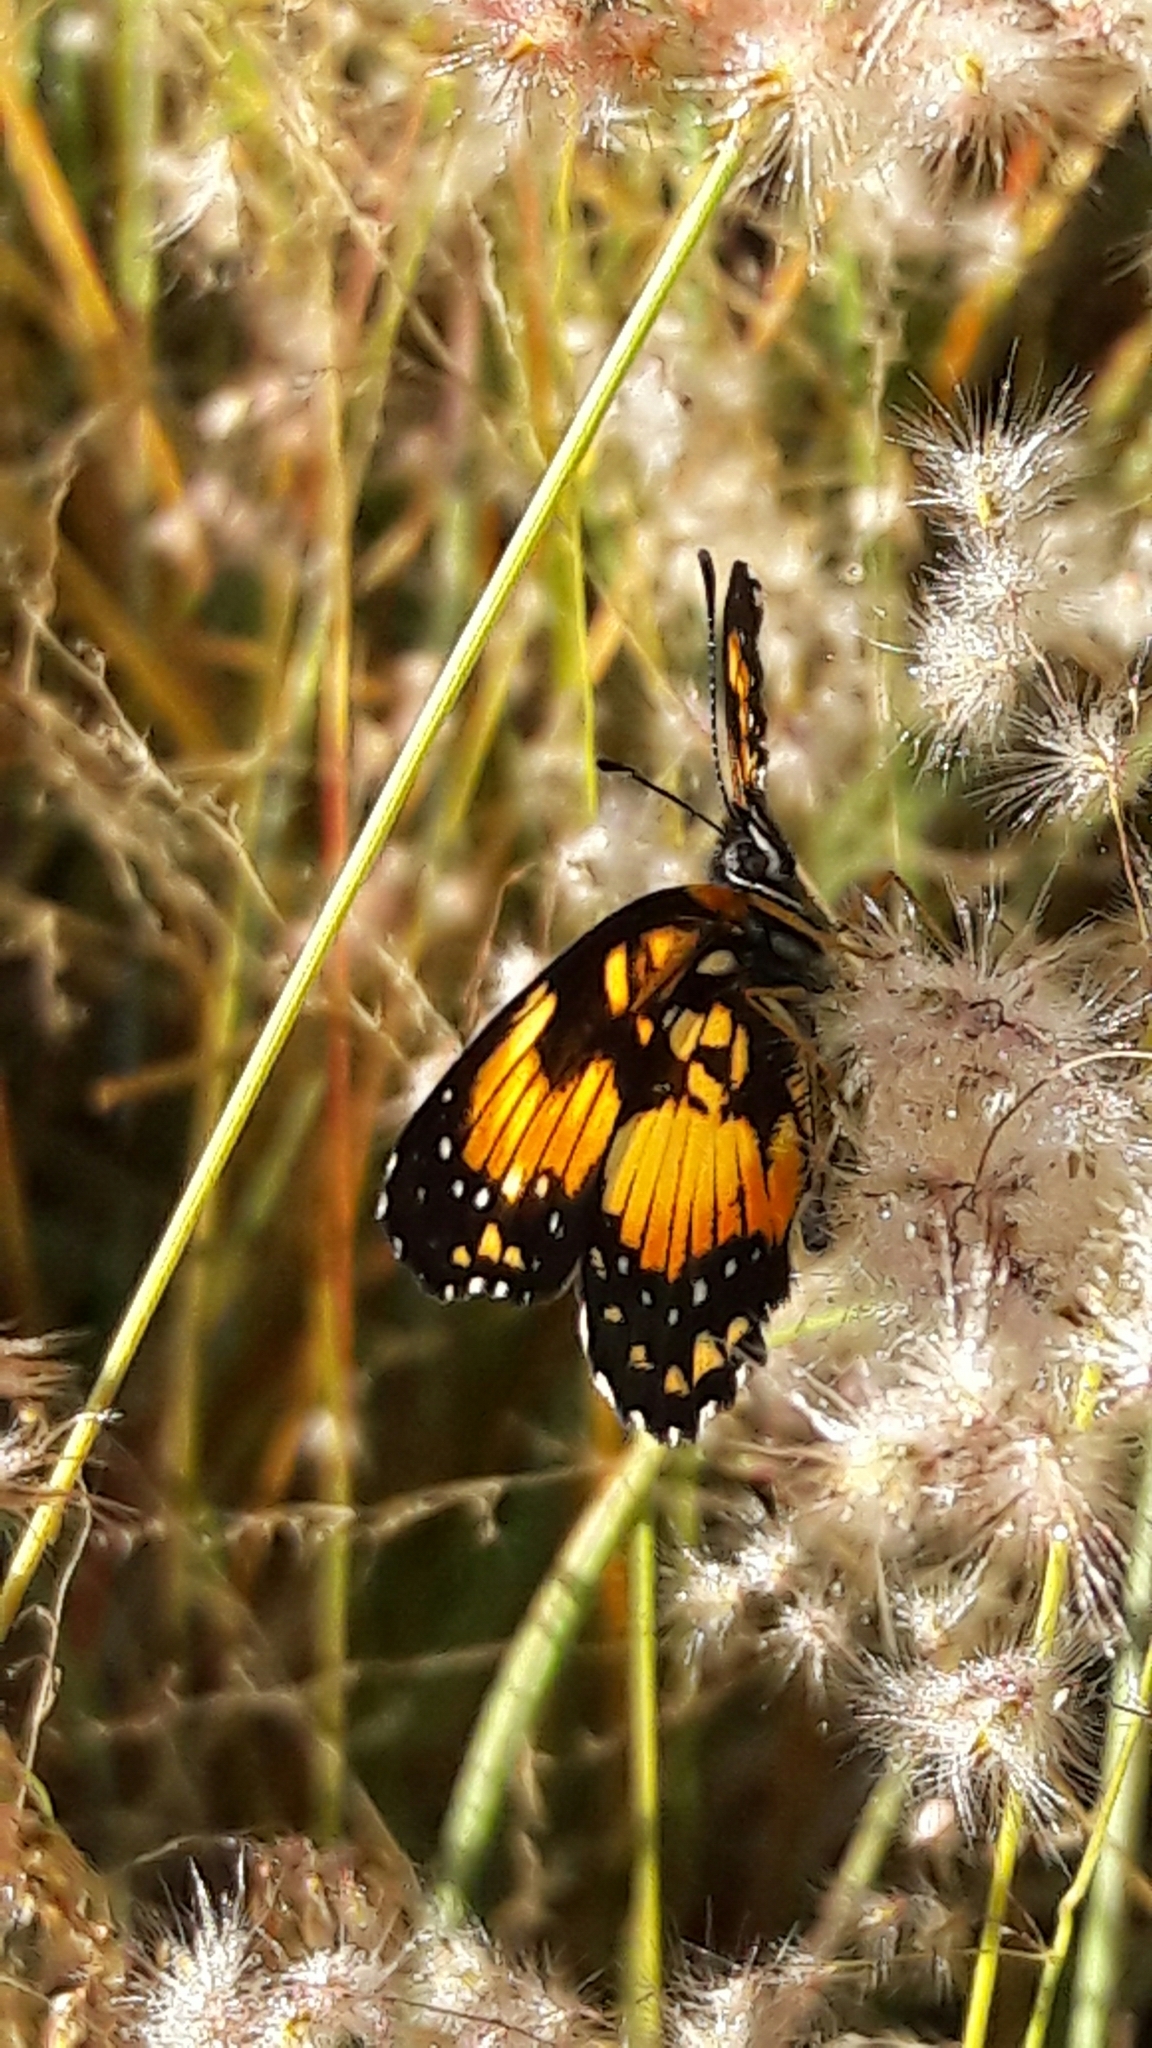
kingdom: Animalia
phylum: Arthropoda
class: Insecta
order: Lepidoptera
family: Nymphalidae
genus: Chlosyne
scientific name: Chlosyne lacinia
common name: Bordered patch
